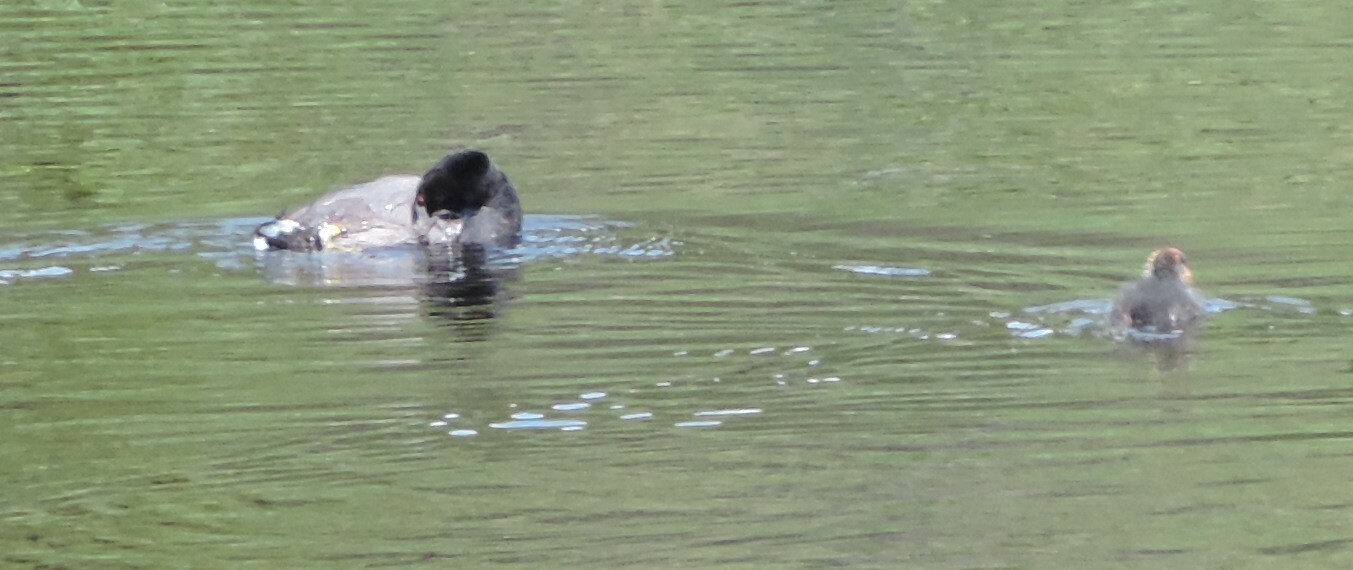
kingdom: Animalia
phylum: Chordata
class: Aves
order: Gruiformes
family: Rallidae
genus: Fulica
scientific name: Fulica americana
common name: American coot
